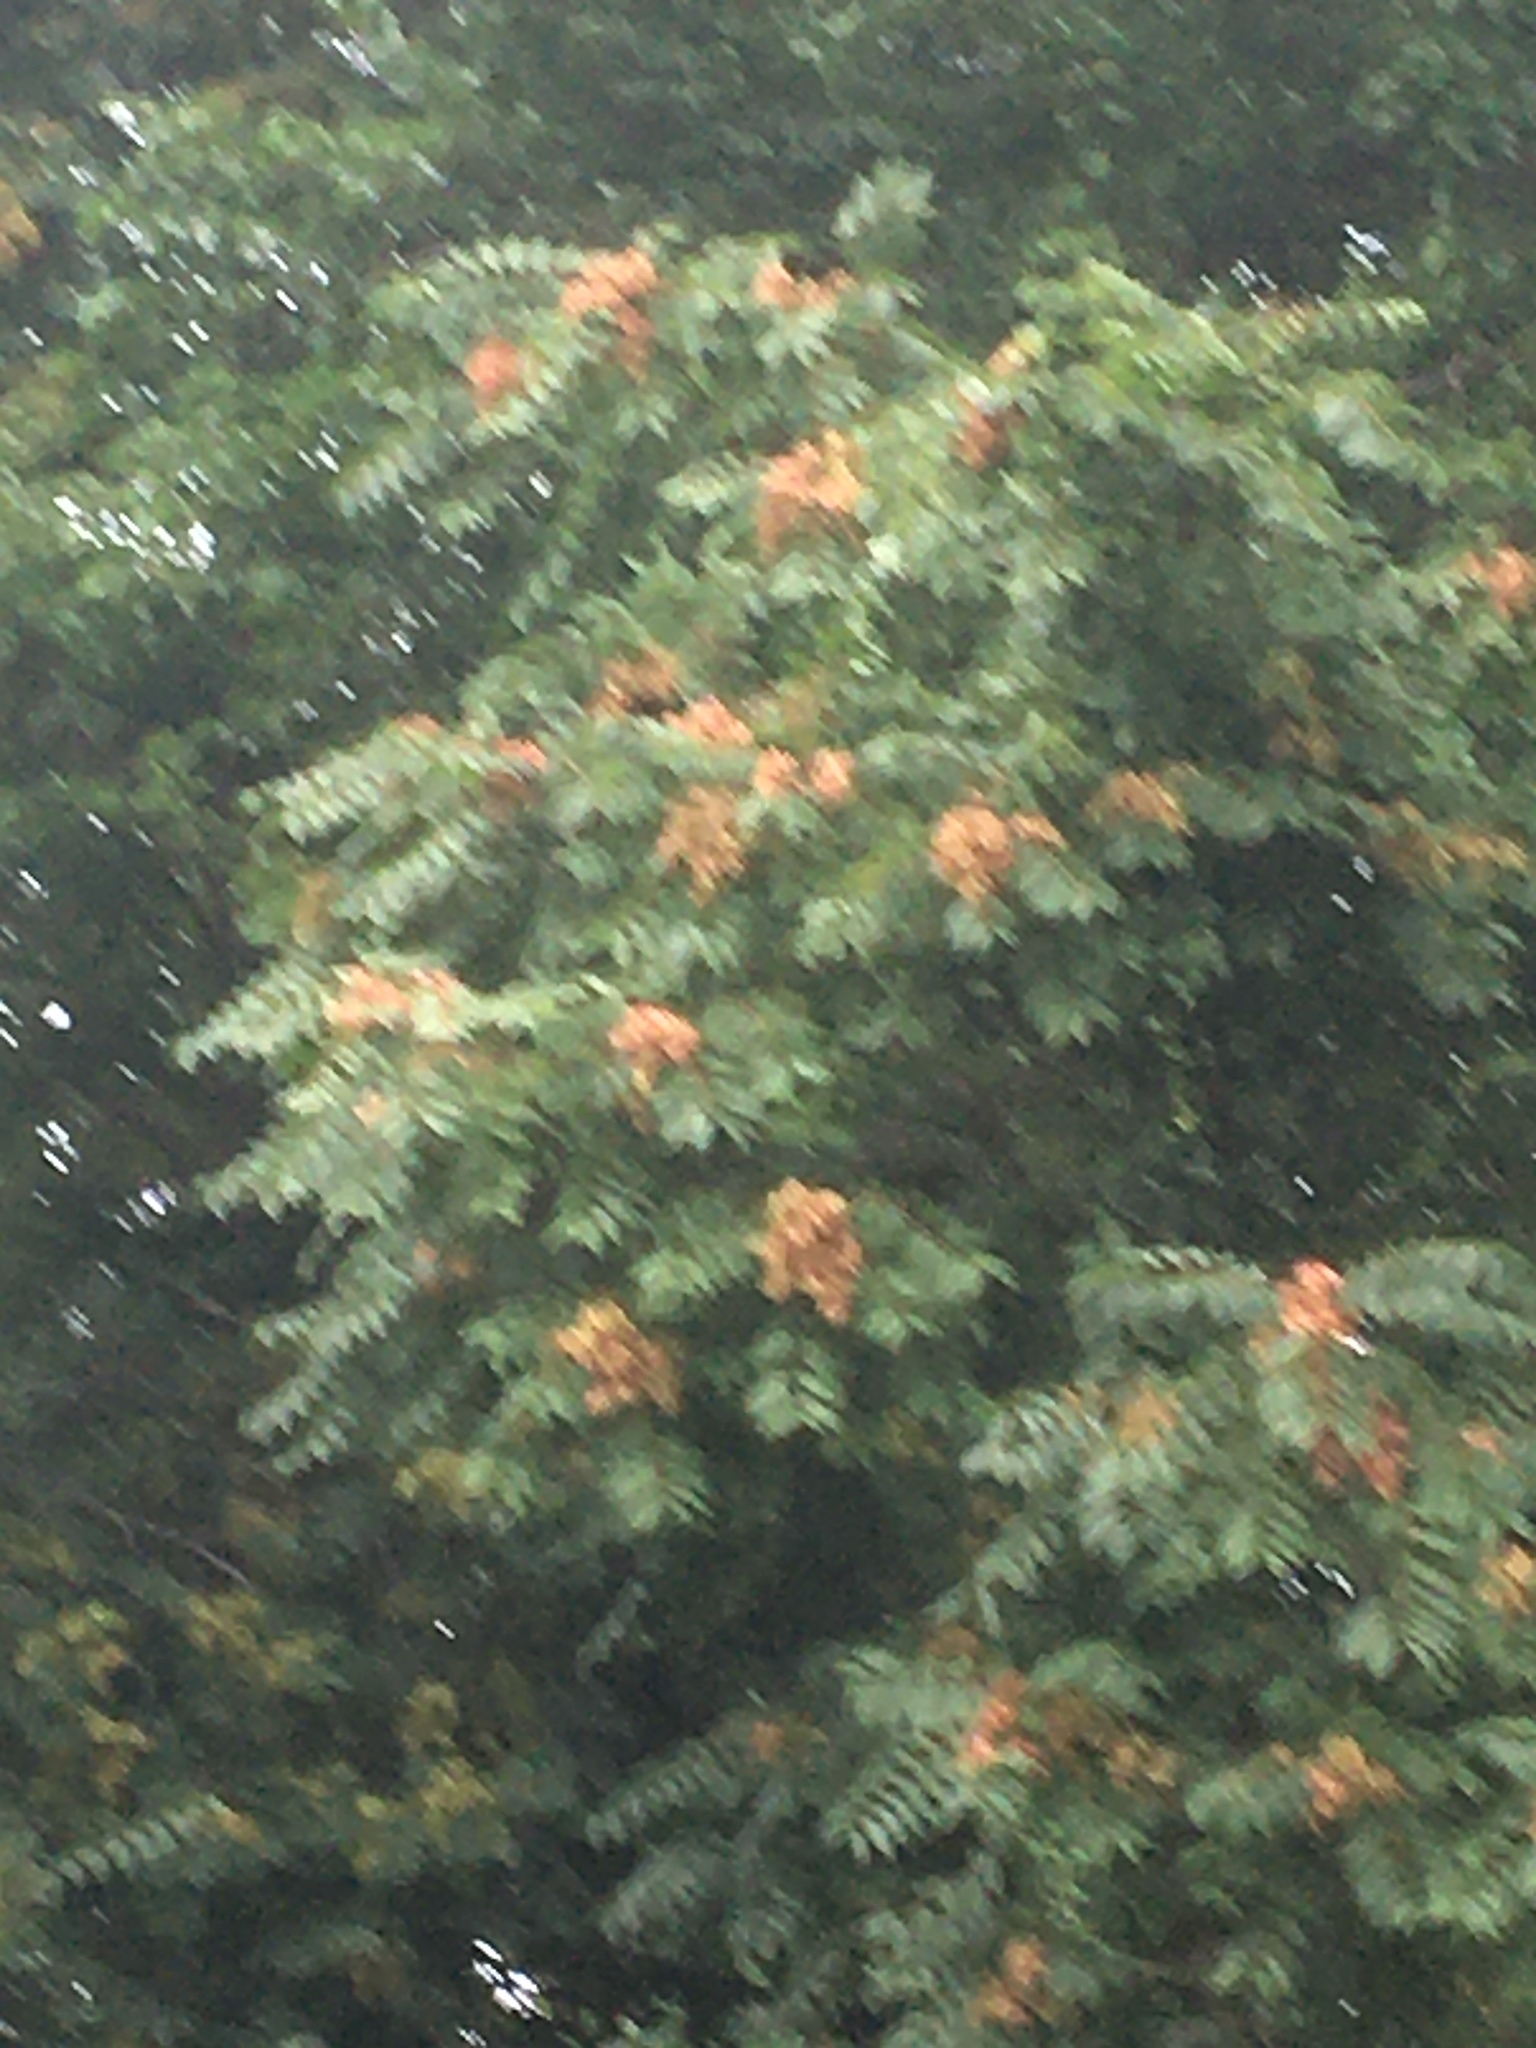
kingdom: Plantae
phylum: Tracheophyta
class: Magnoliopsida
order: Sapindales
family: Simaroubaceae
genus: Ailanthus
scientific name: Ailanthus altissima
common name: Tree-of-heaven
